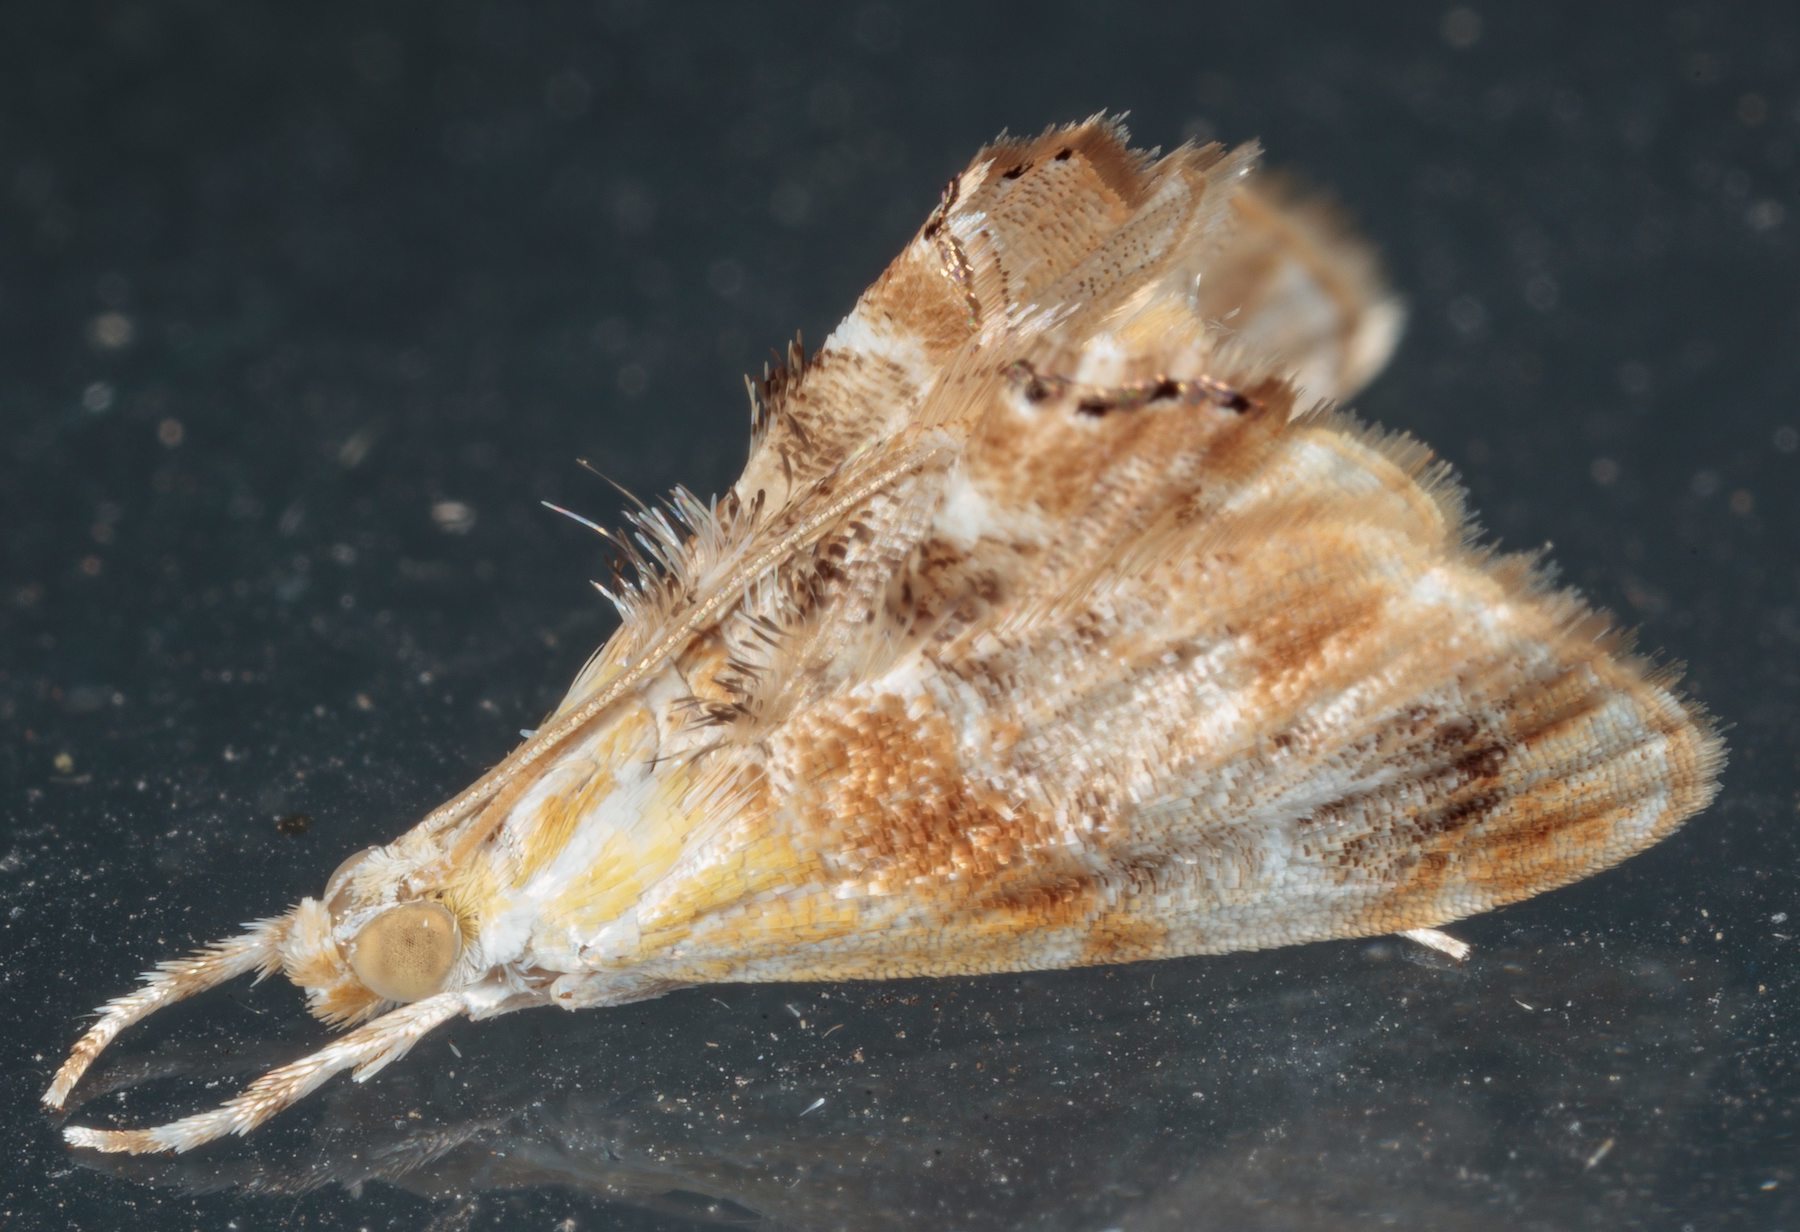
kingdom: Animalia
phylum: Arthropoda
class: Insecta
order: Lepidoptera
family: Crambidae
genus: Dicymolomia
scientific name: Dicymolomia julianalis
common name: Julia's dicymolomia moth
